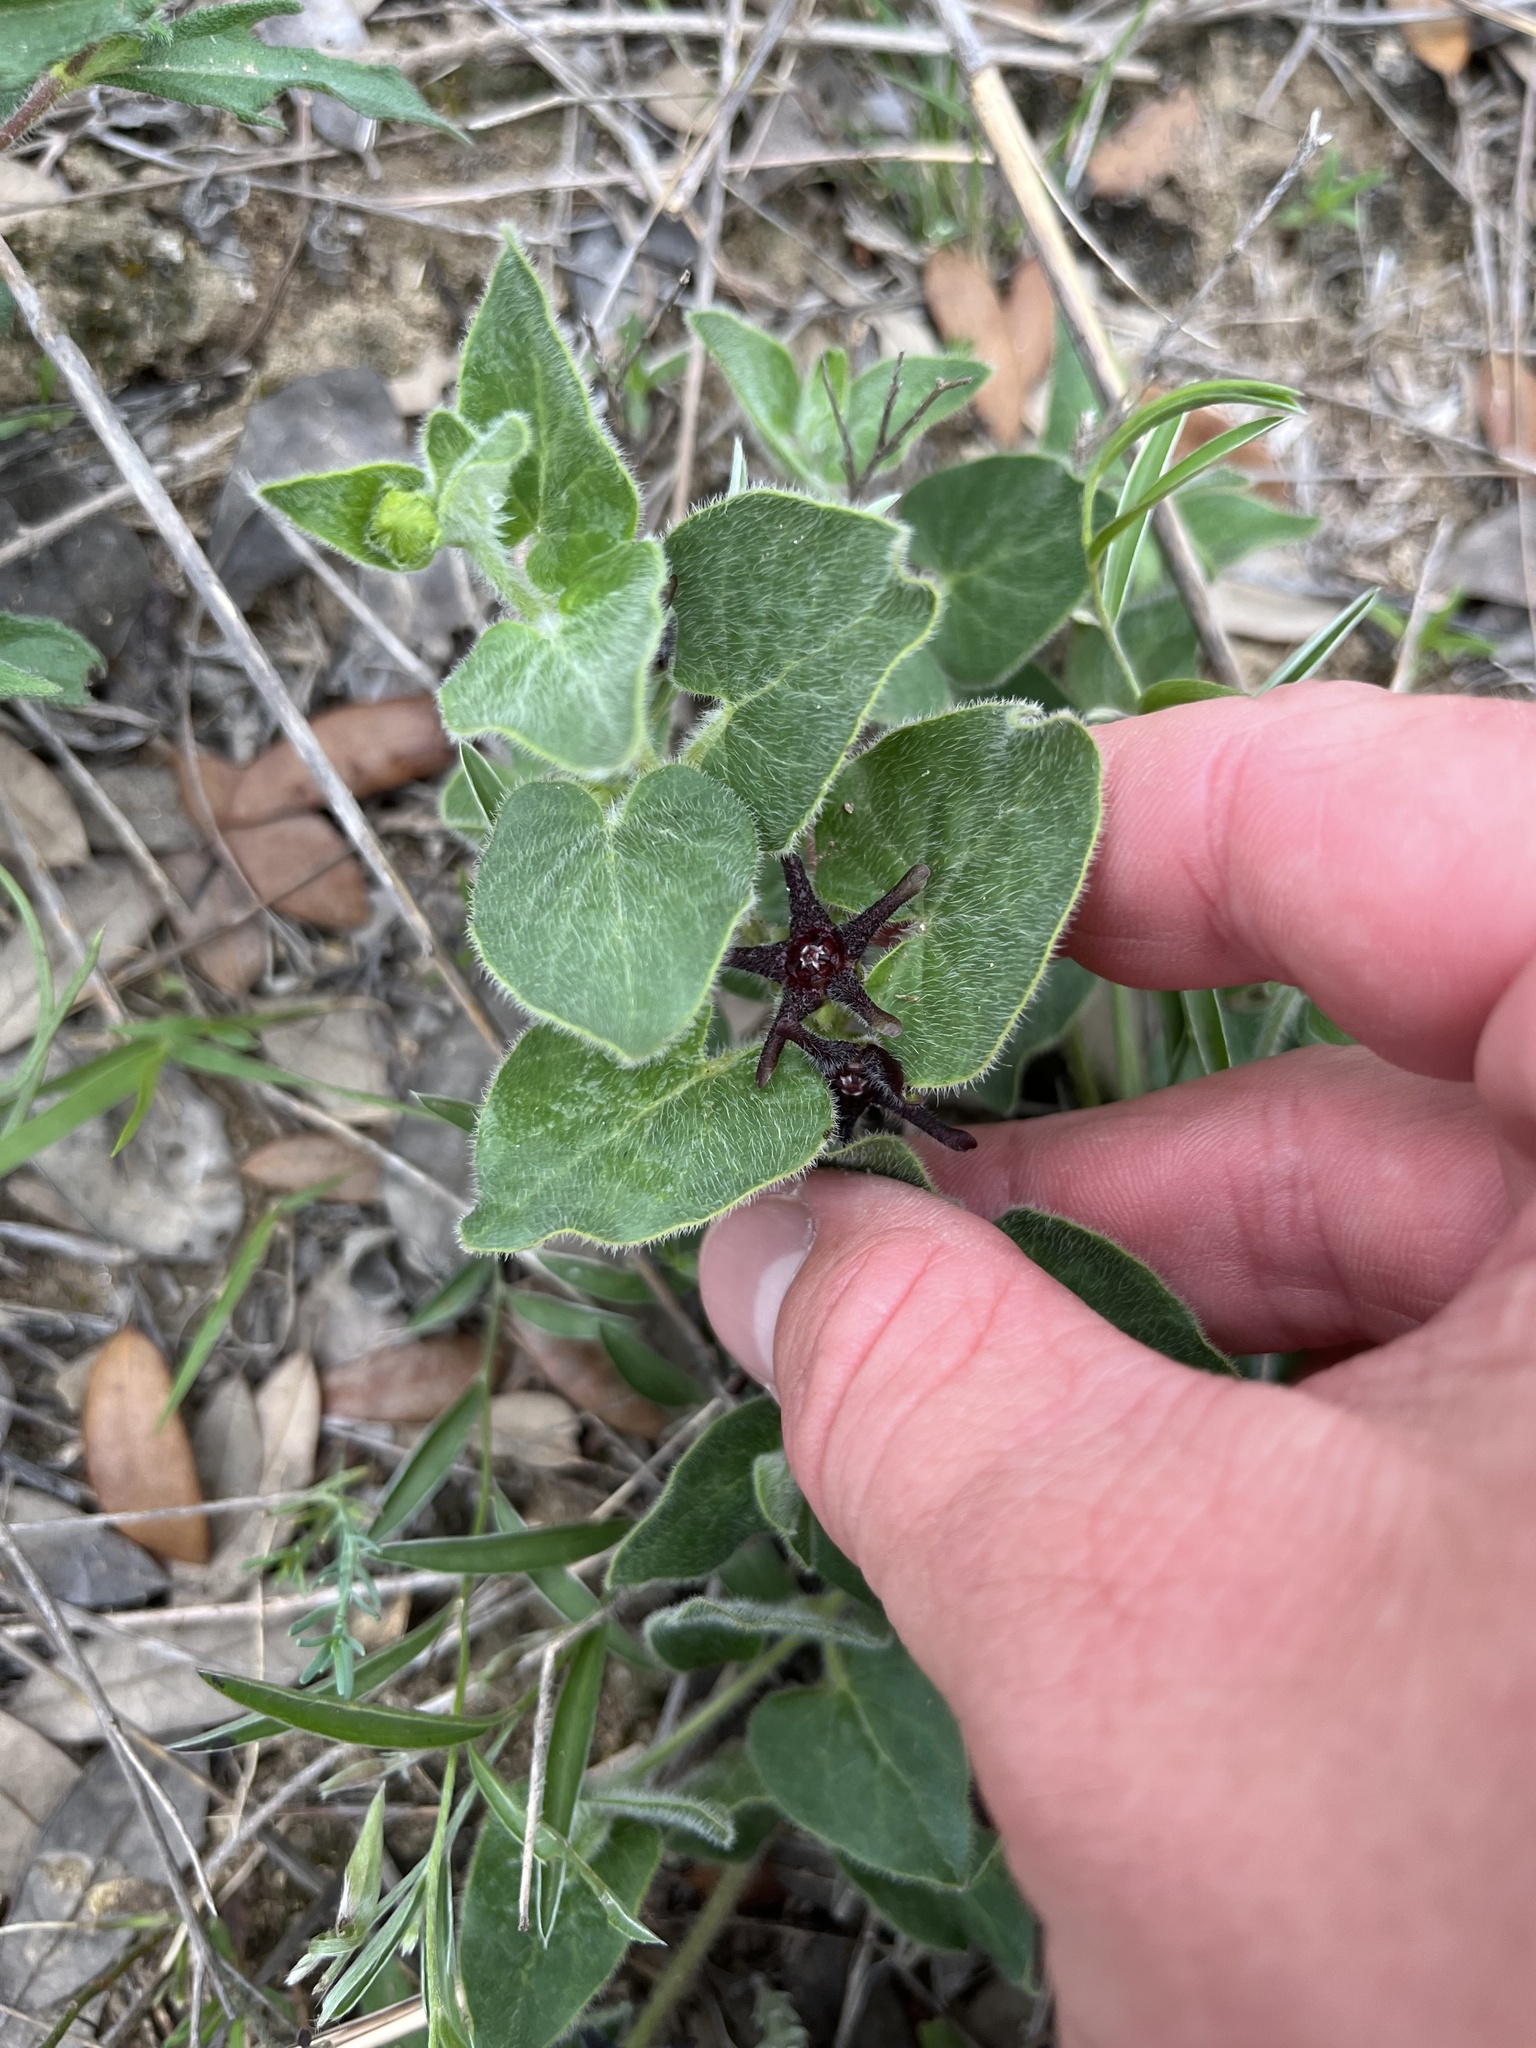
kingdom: Plantae
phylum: Tracheophyta
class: Magnoliopsida
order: Gentianales
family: Apocynaceae
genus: Chthamalia
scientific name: Chthamalia biflora
